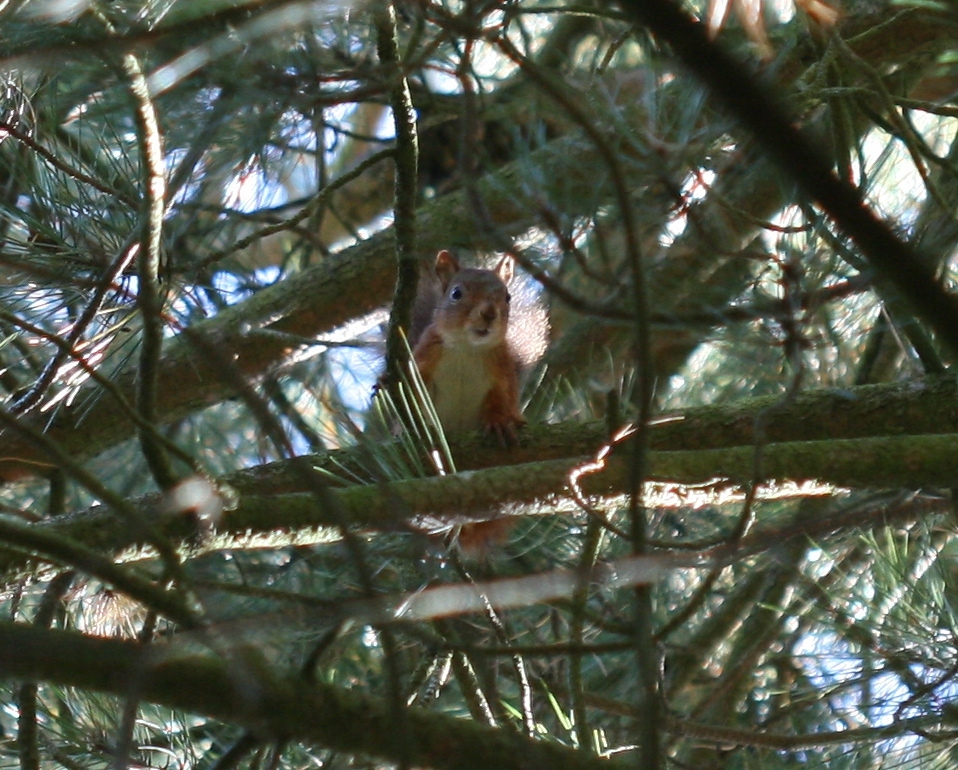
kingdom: Animalia
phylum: Chordata
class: Mammalia
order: Rodentia
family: Sciuridae
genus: Sciurus
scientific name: Sciurus vulgaris
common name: Eurasian red squirrel
